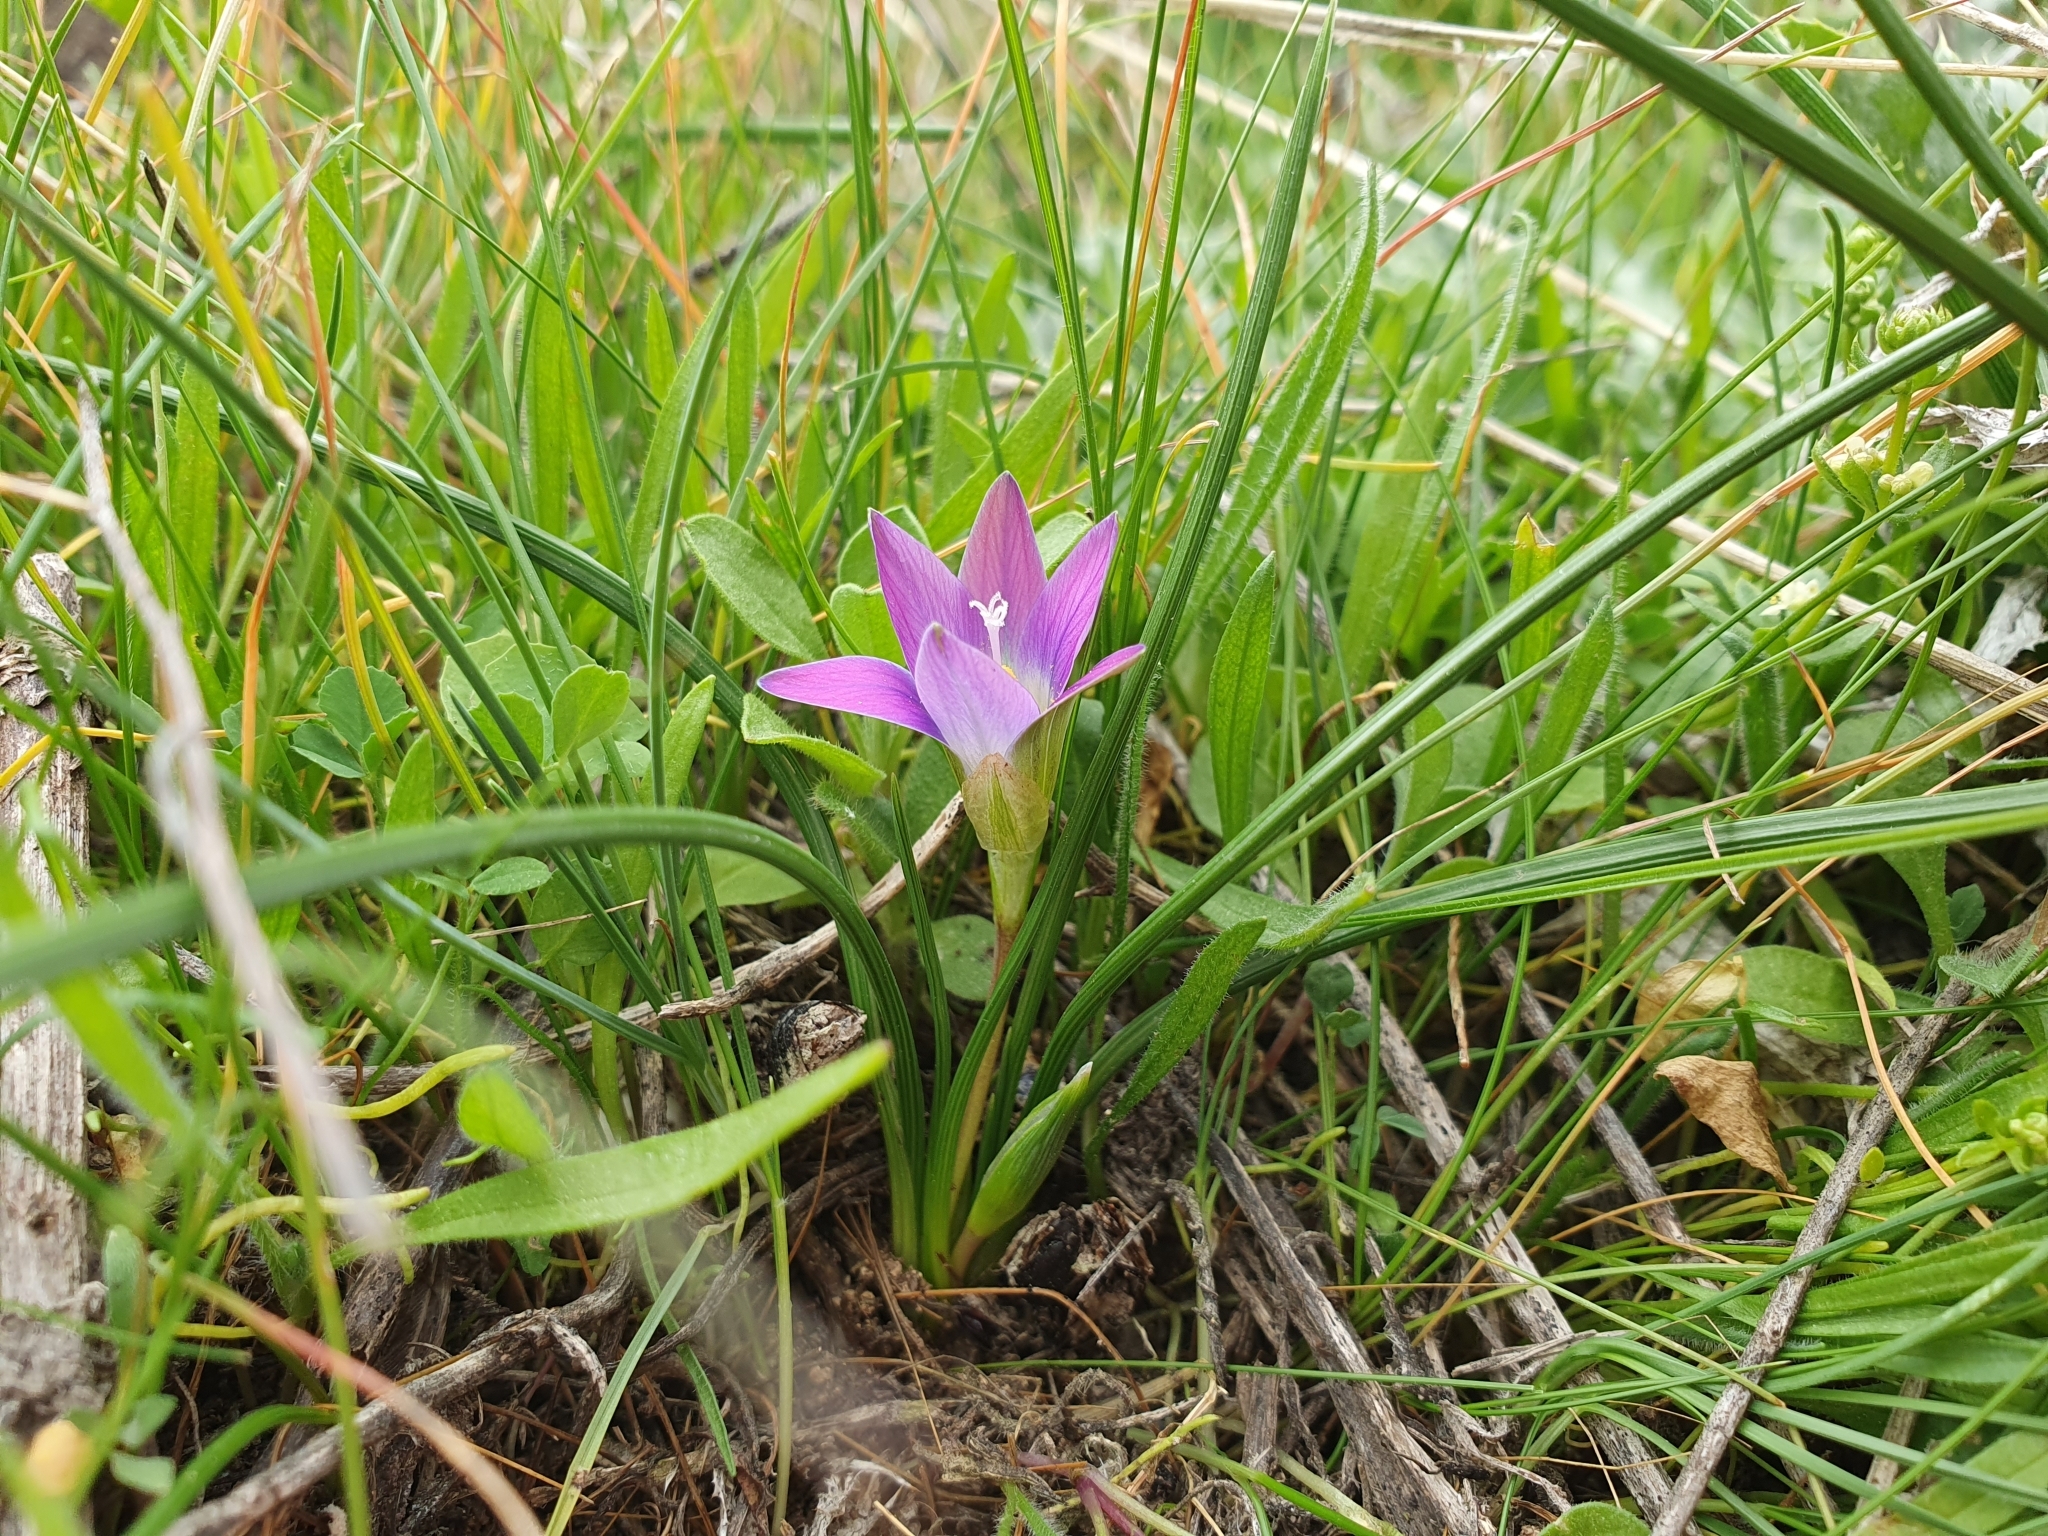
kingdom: Plantae
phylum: Tracheophyta
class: Liliopsida
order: Asparagales
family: Iridaceae
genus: Romulea
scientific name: Romulea bulbocodium
